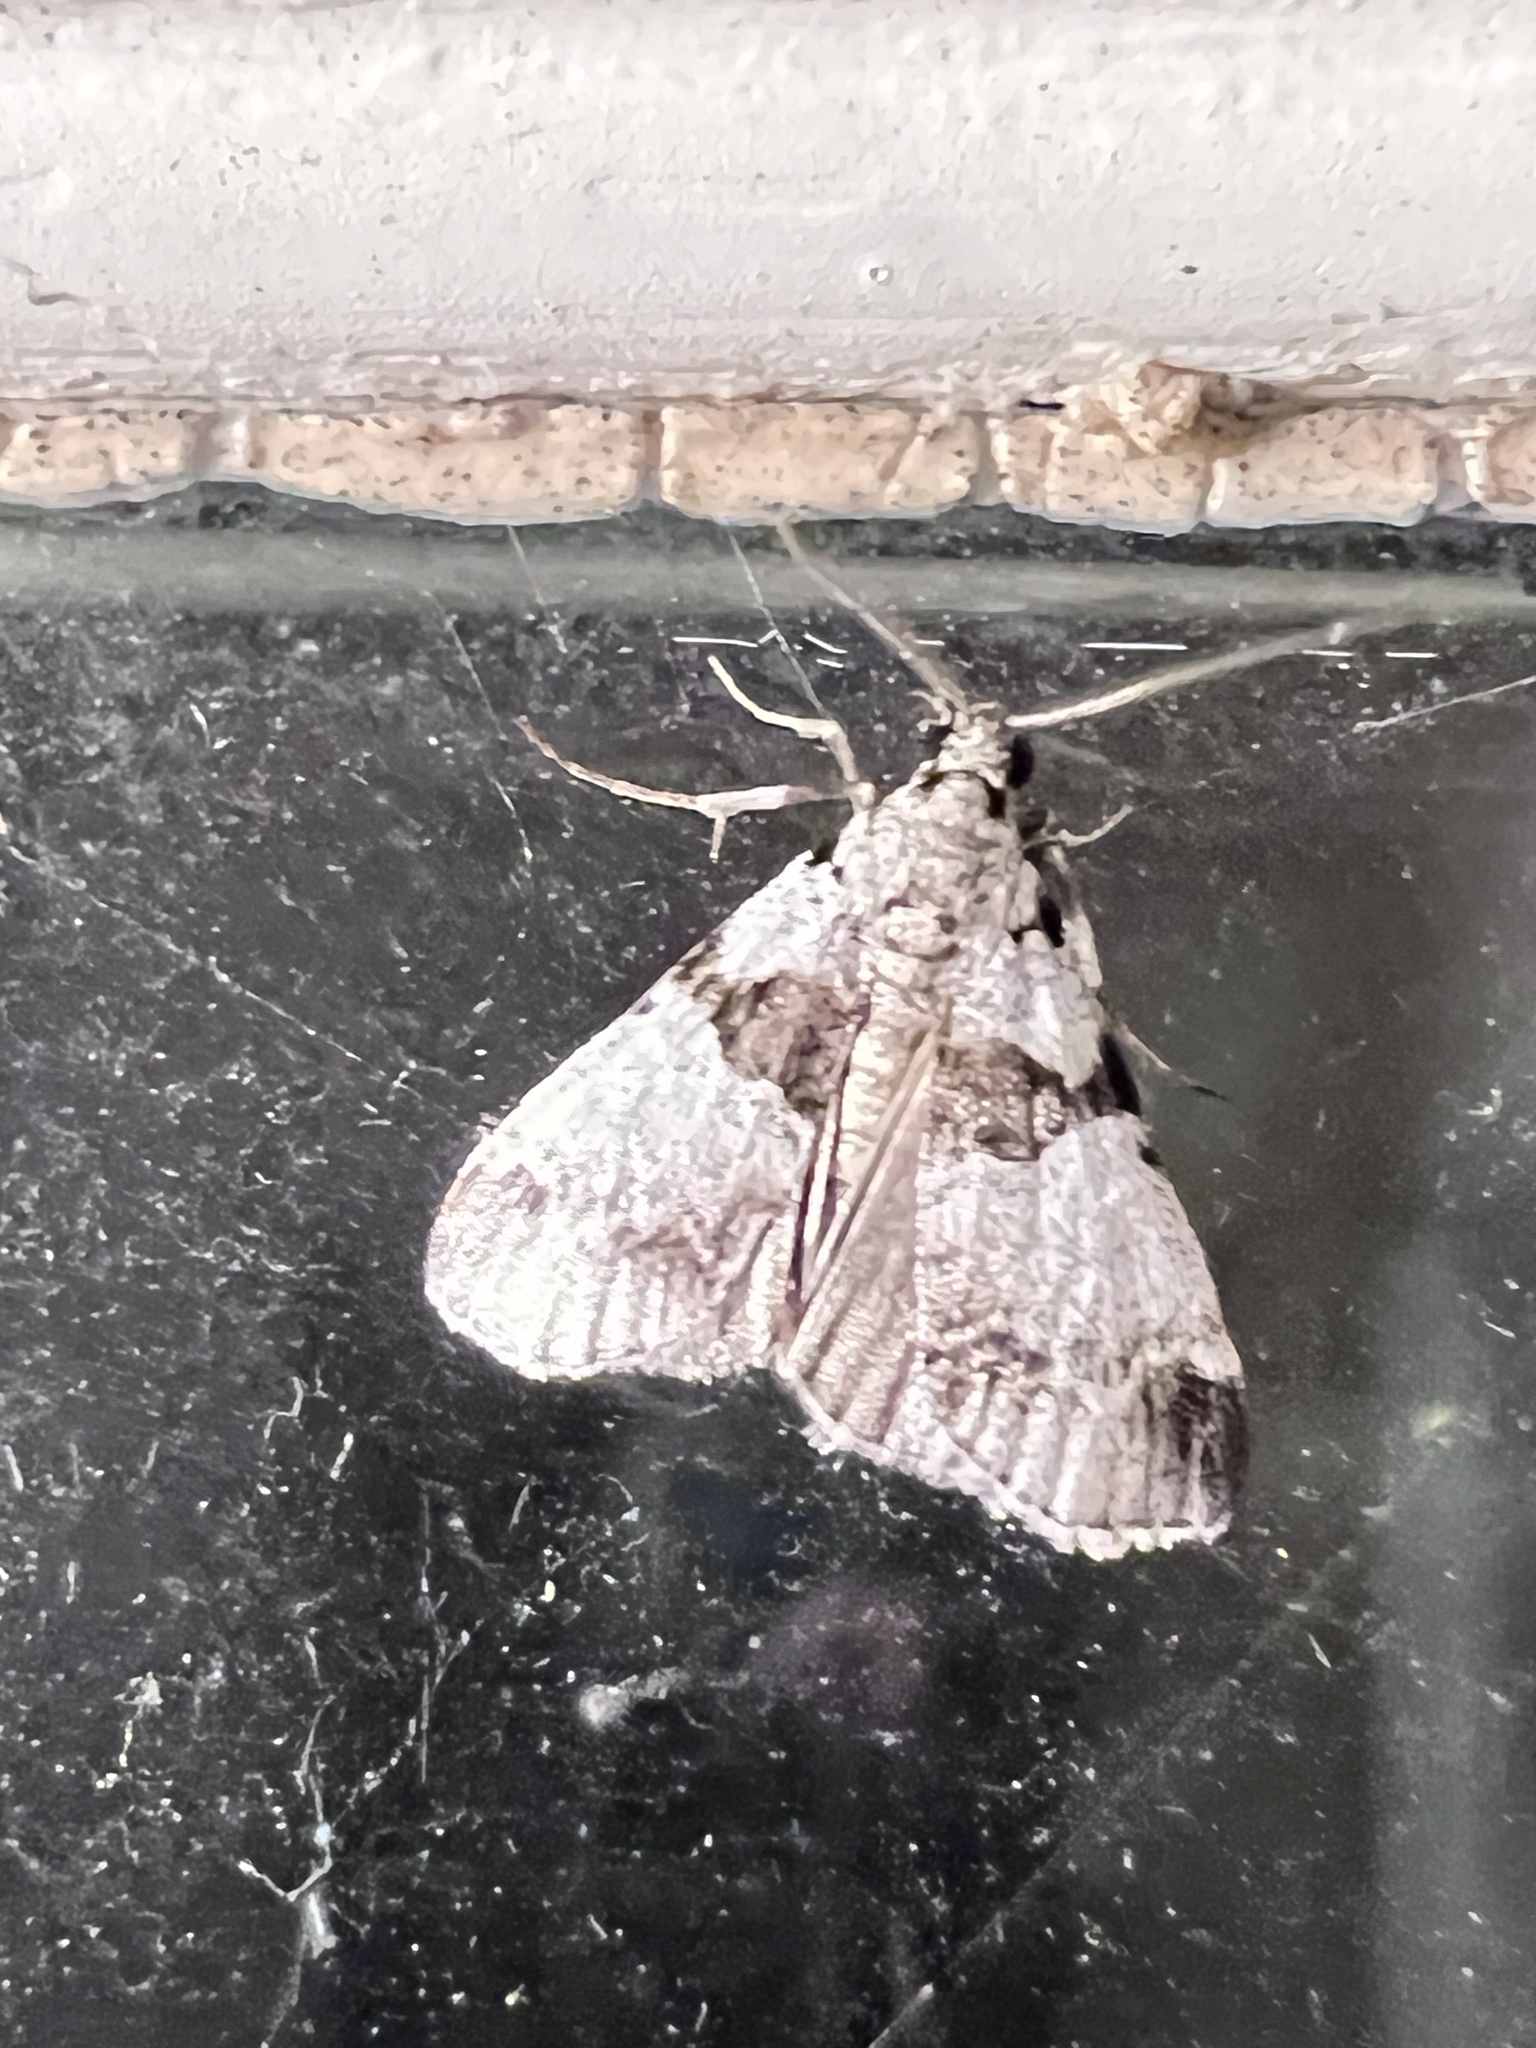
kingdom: Animalia
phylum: Arthropoda
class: Insecta
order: Lepidoptera
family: Pyralidae
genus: Tallula
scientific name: Tallula atrifascialis
